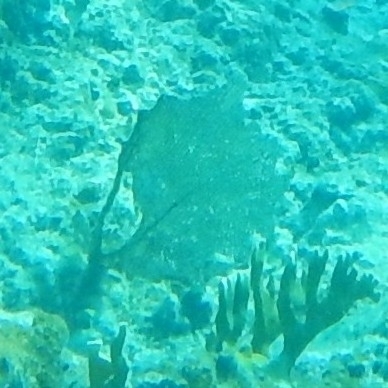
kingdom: Animalia
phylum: Cnidaria
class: Anthozoa
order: Malacalcyonacea
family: Gorgoniidae
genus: Gorgonia
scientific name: Gorgonia ventalina
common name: Common sea fan
